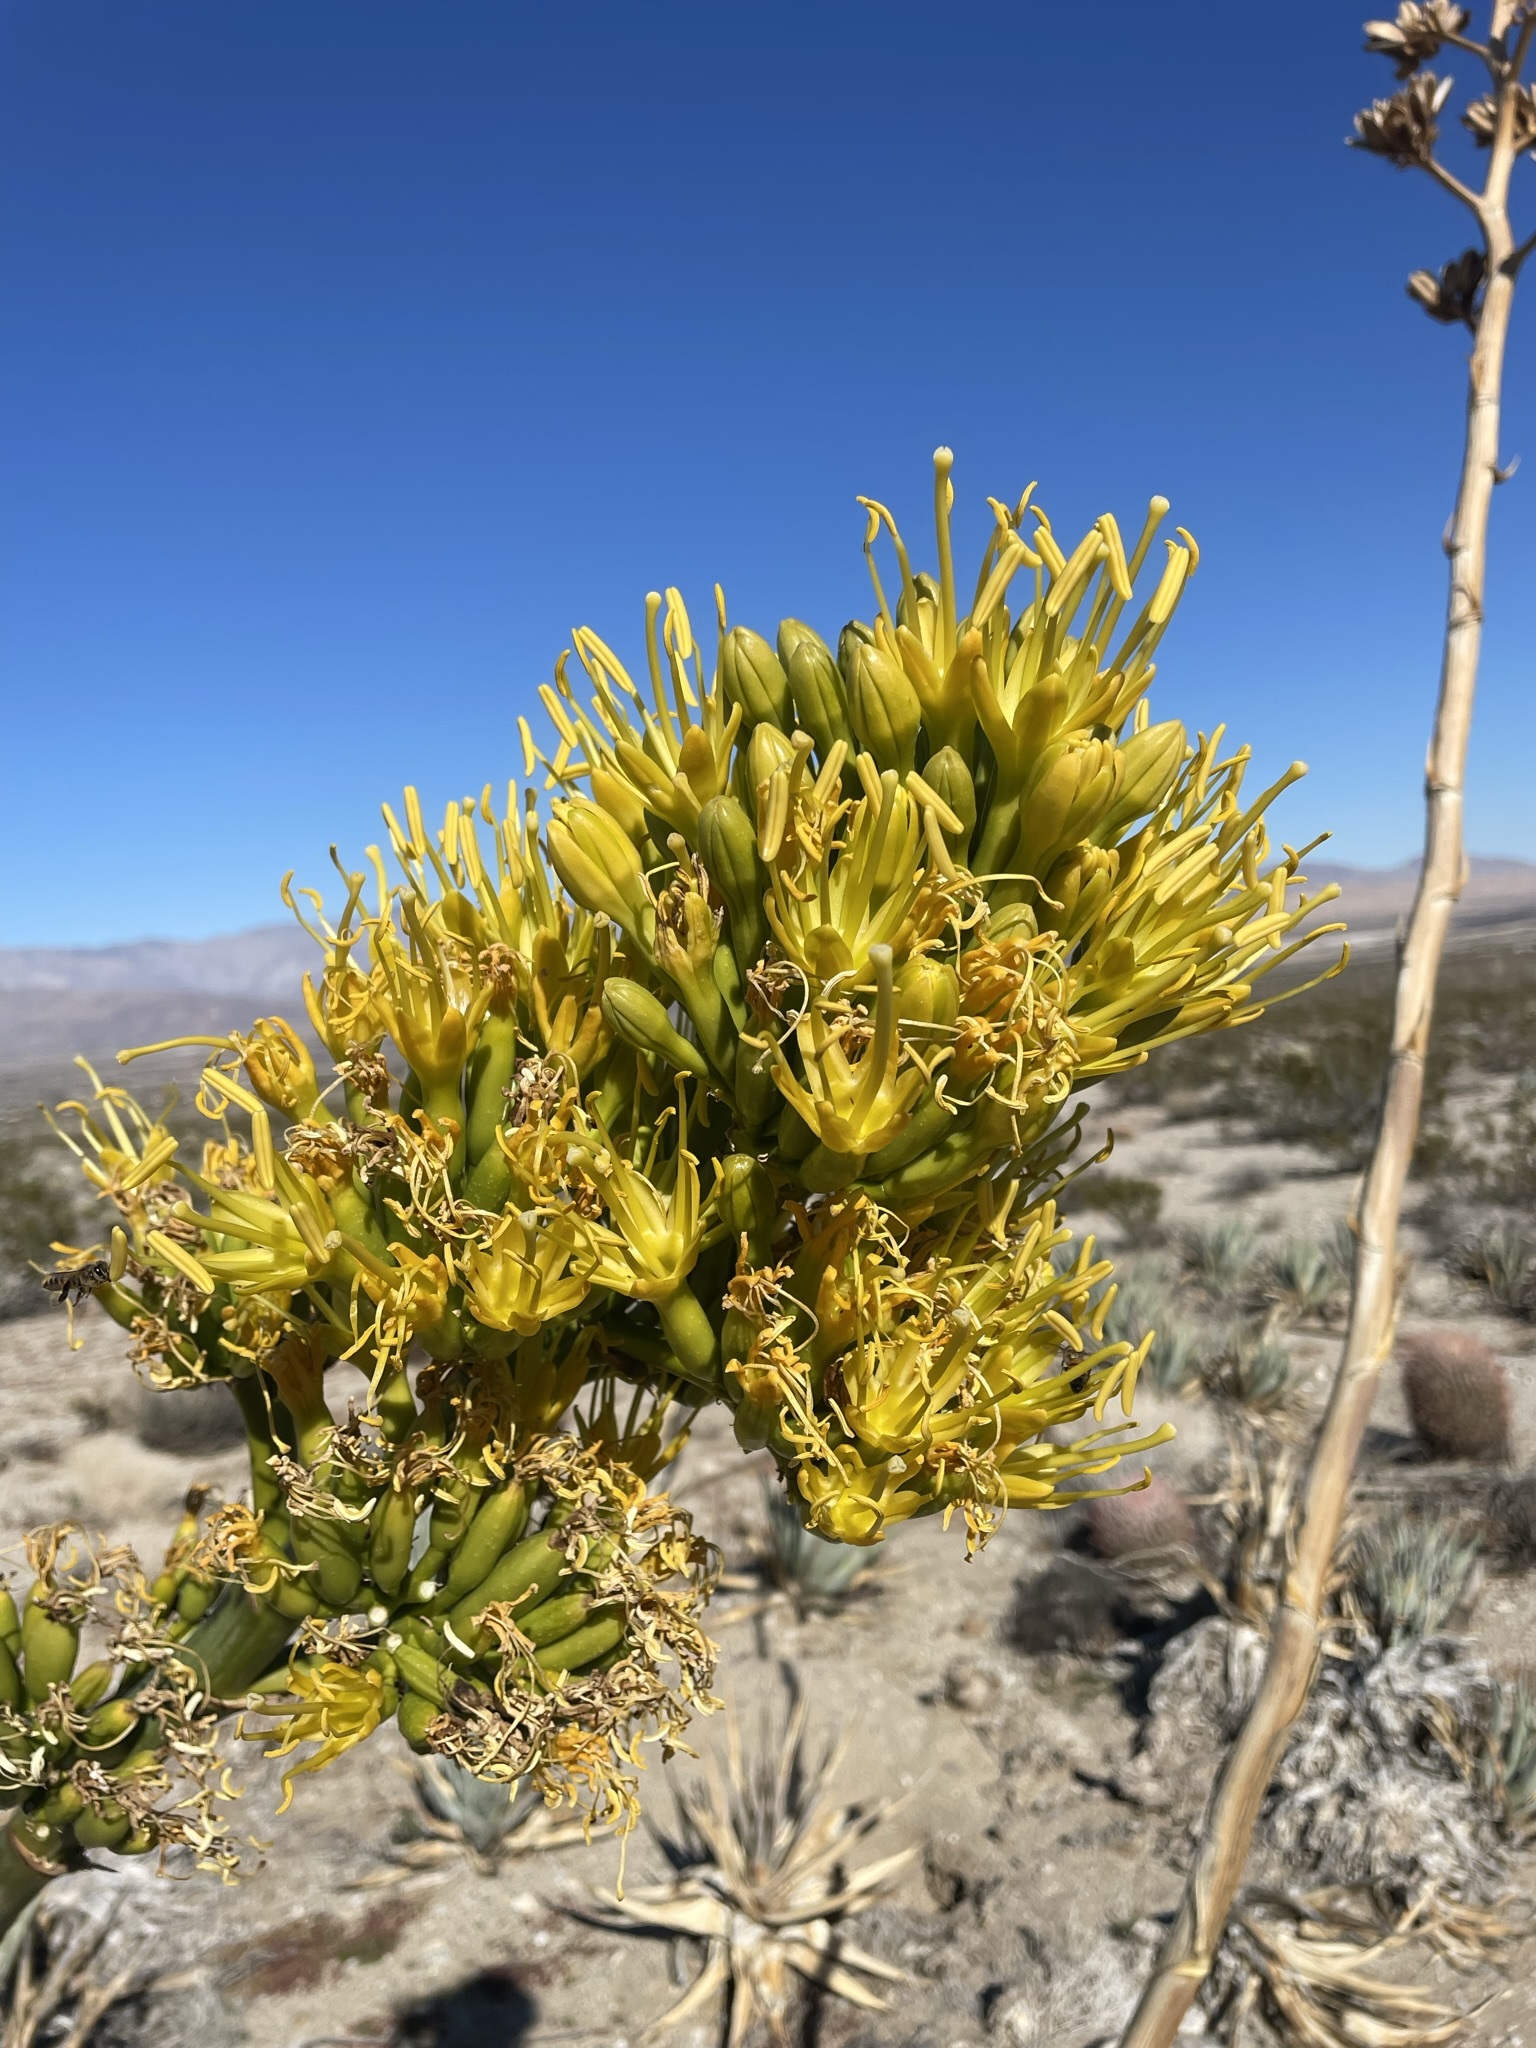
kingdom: Plantae
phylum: Tracheophyta
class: Liliopsida
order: Asparagales
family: Asparagaceae
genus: Agave
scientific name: Agave deserti
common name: Desert agave
